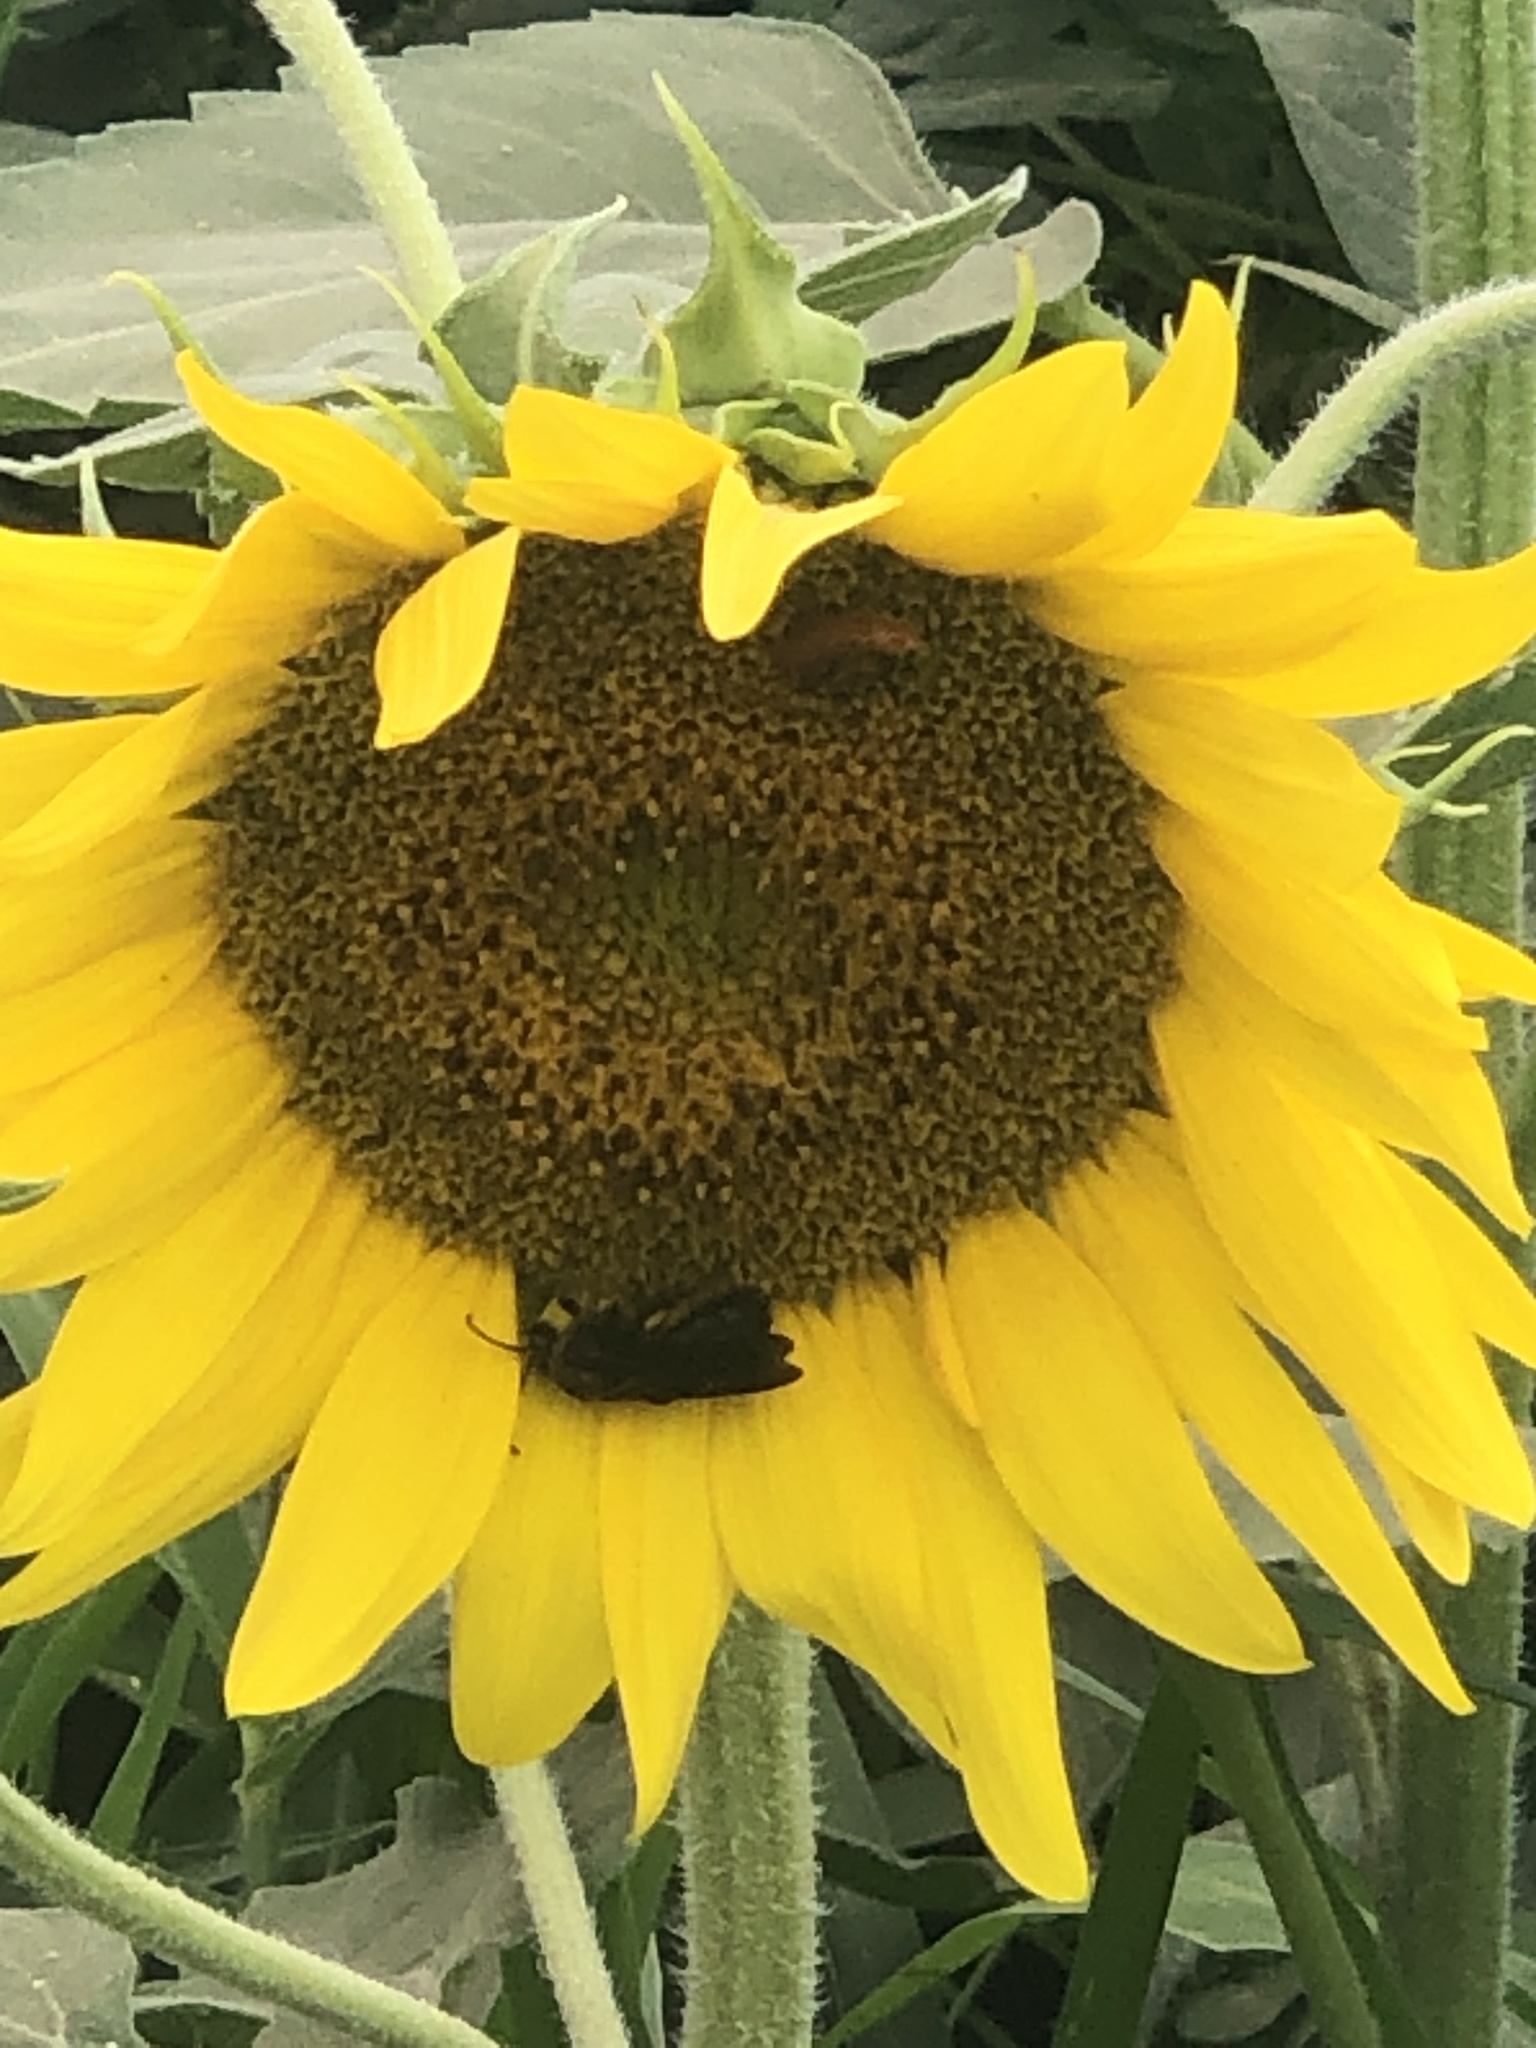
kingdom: Animalia
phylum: Arthropoda
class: Insecta
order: Hymenoptera
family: Halictidae
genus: Dieunomia
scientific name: Dieunomia heteropoda
